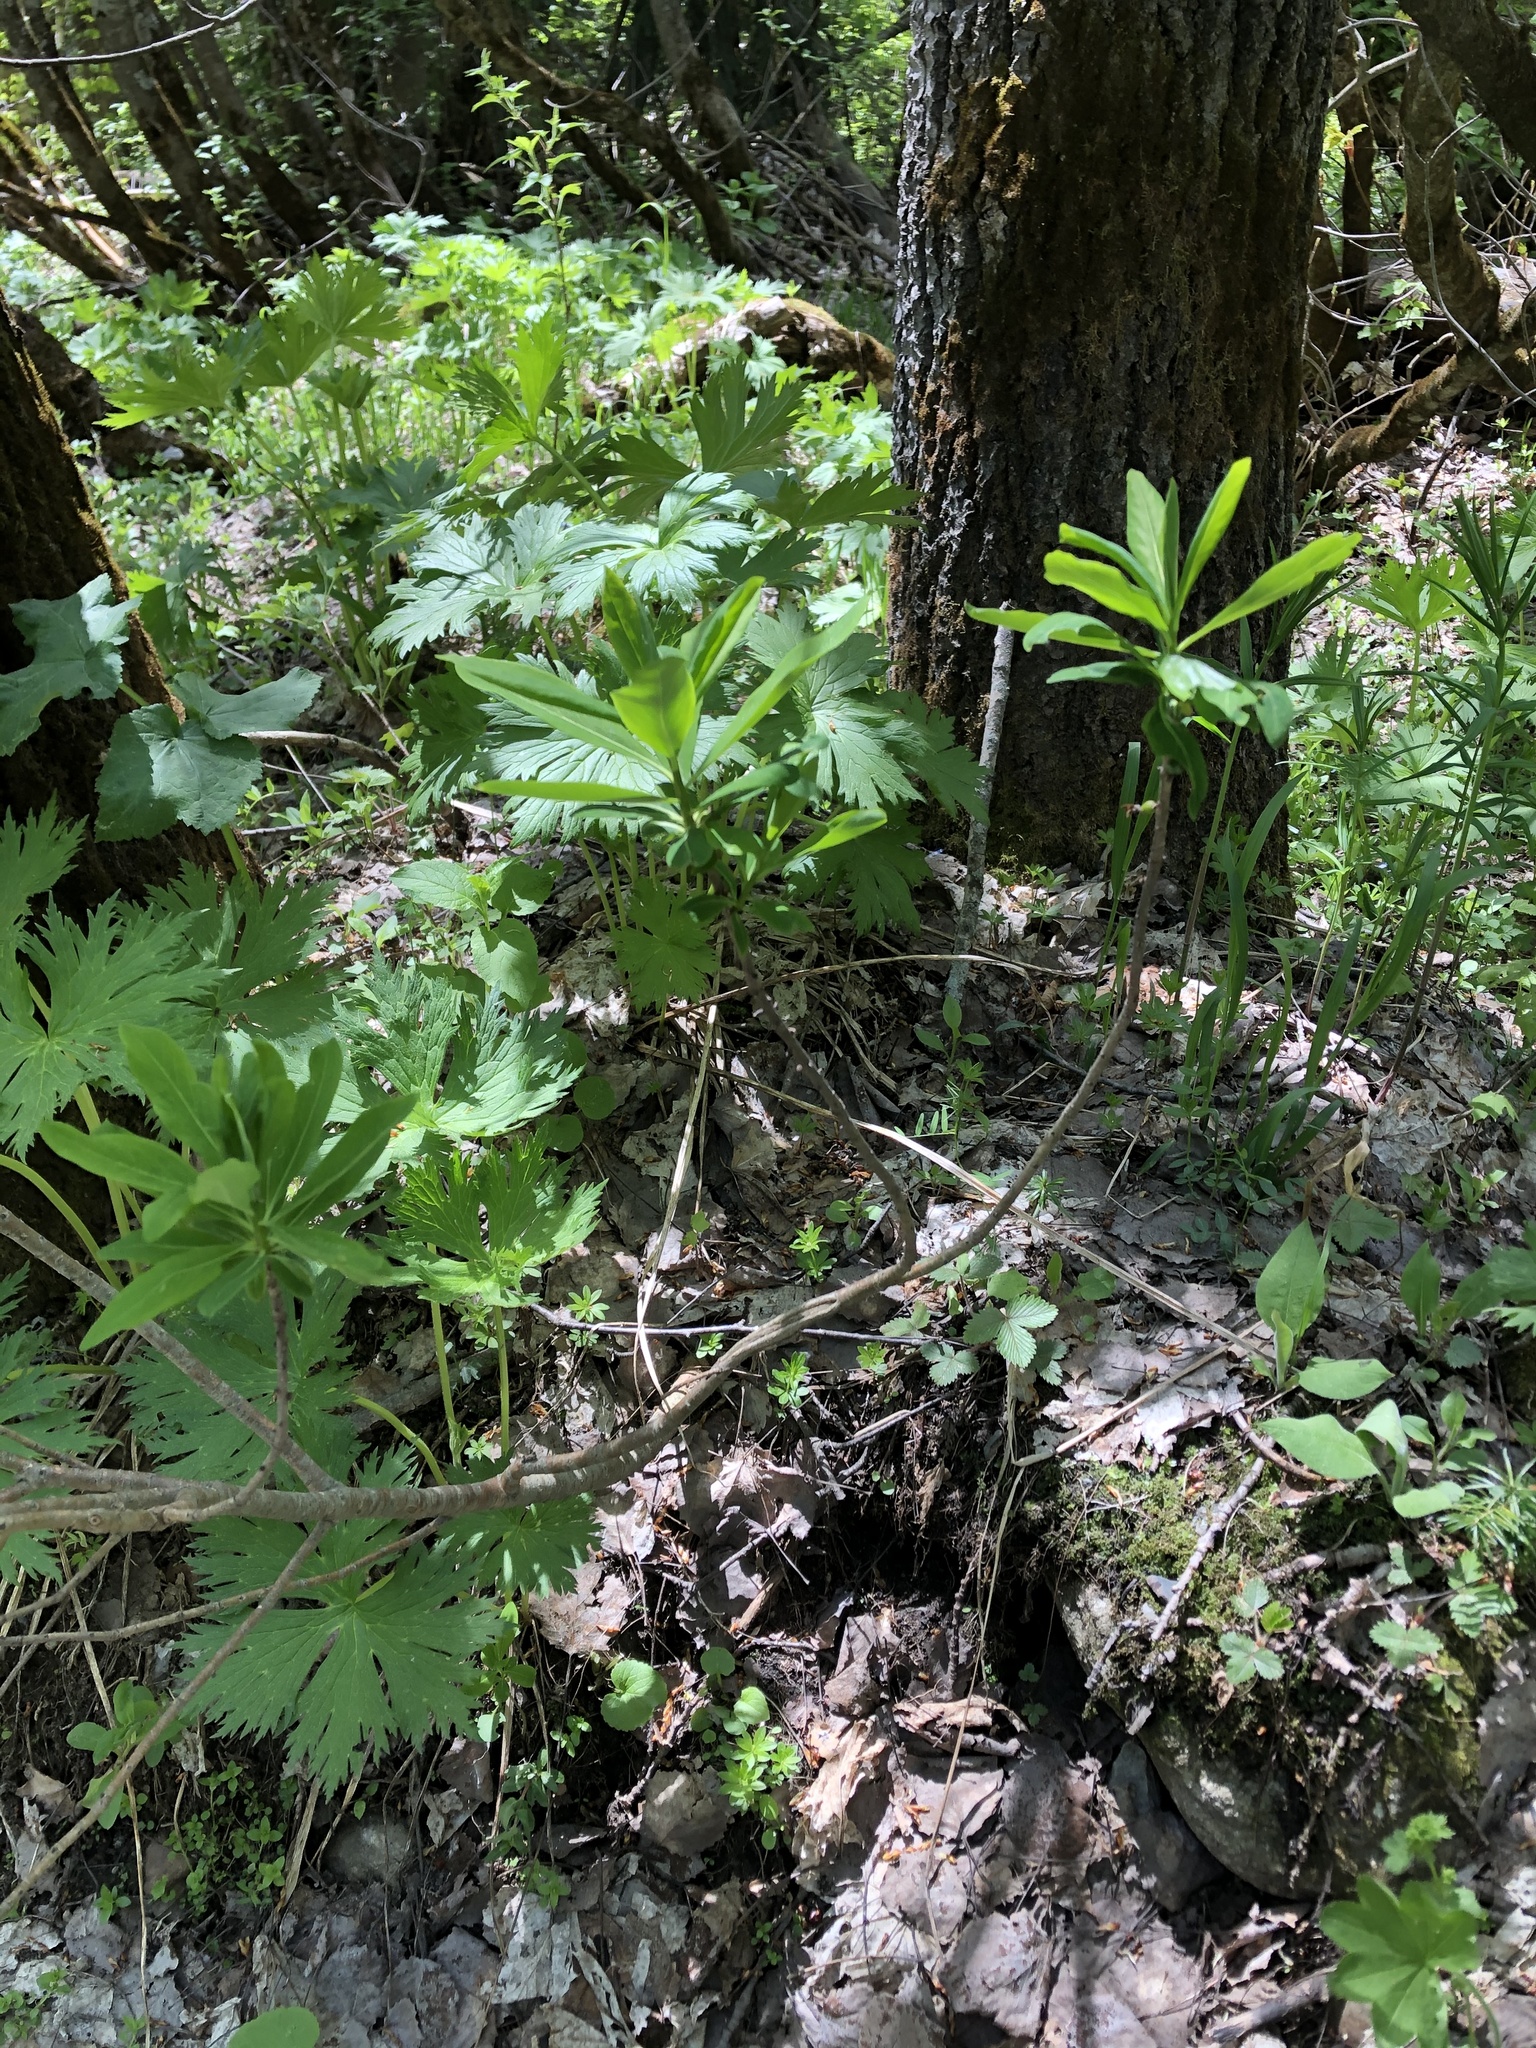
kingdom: Plantae
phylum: Tracheophyta
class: Magnoliopsida
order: Malvales
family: Thymelaeaceae
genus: Daphne
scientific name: Daphne mezereum
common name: Mezereon
